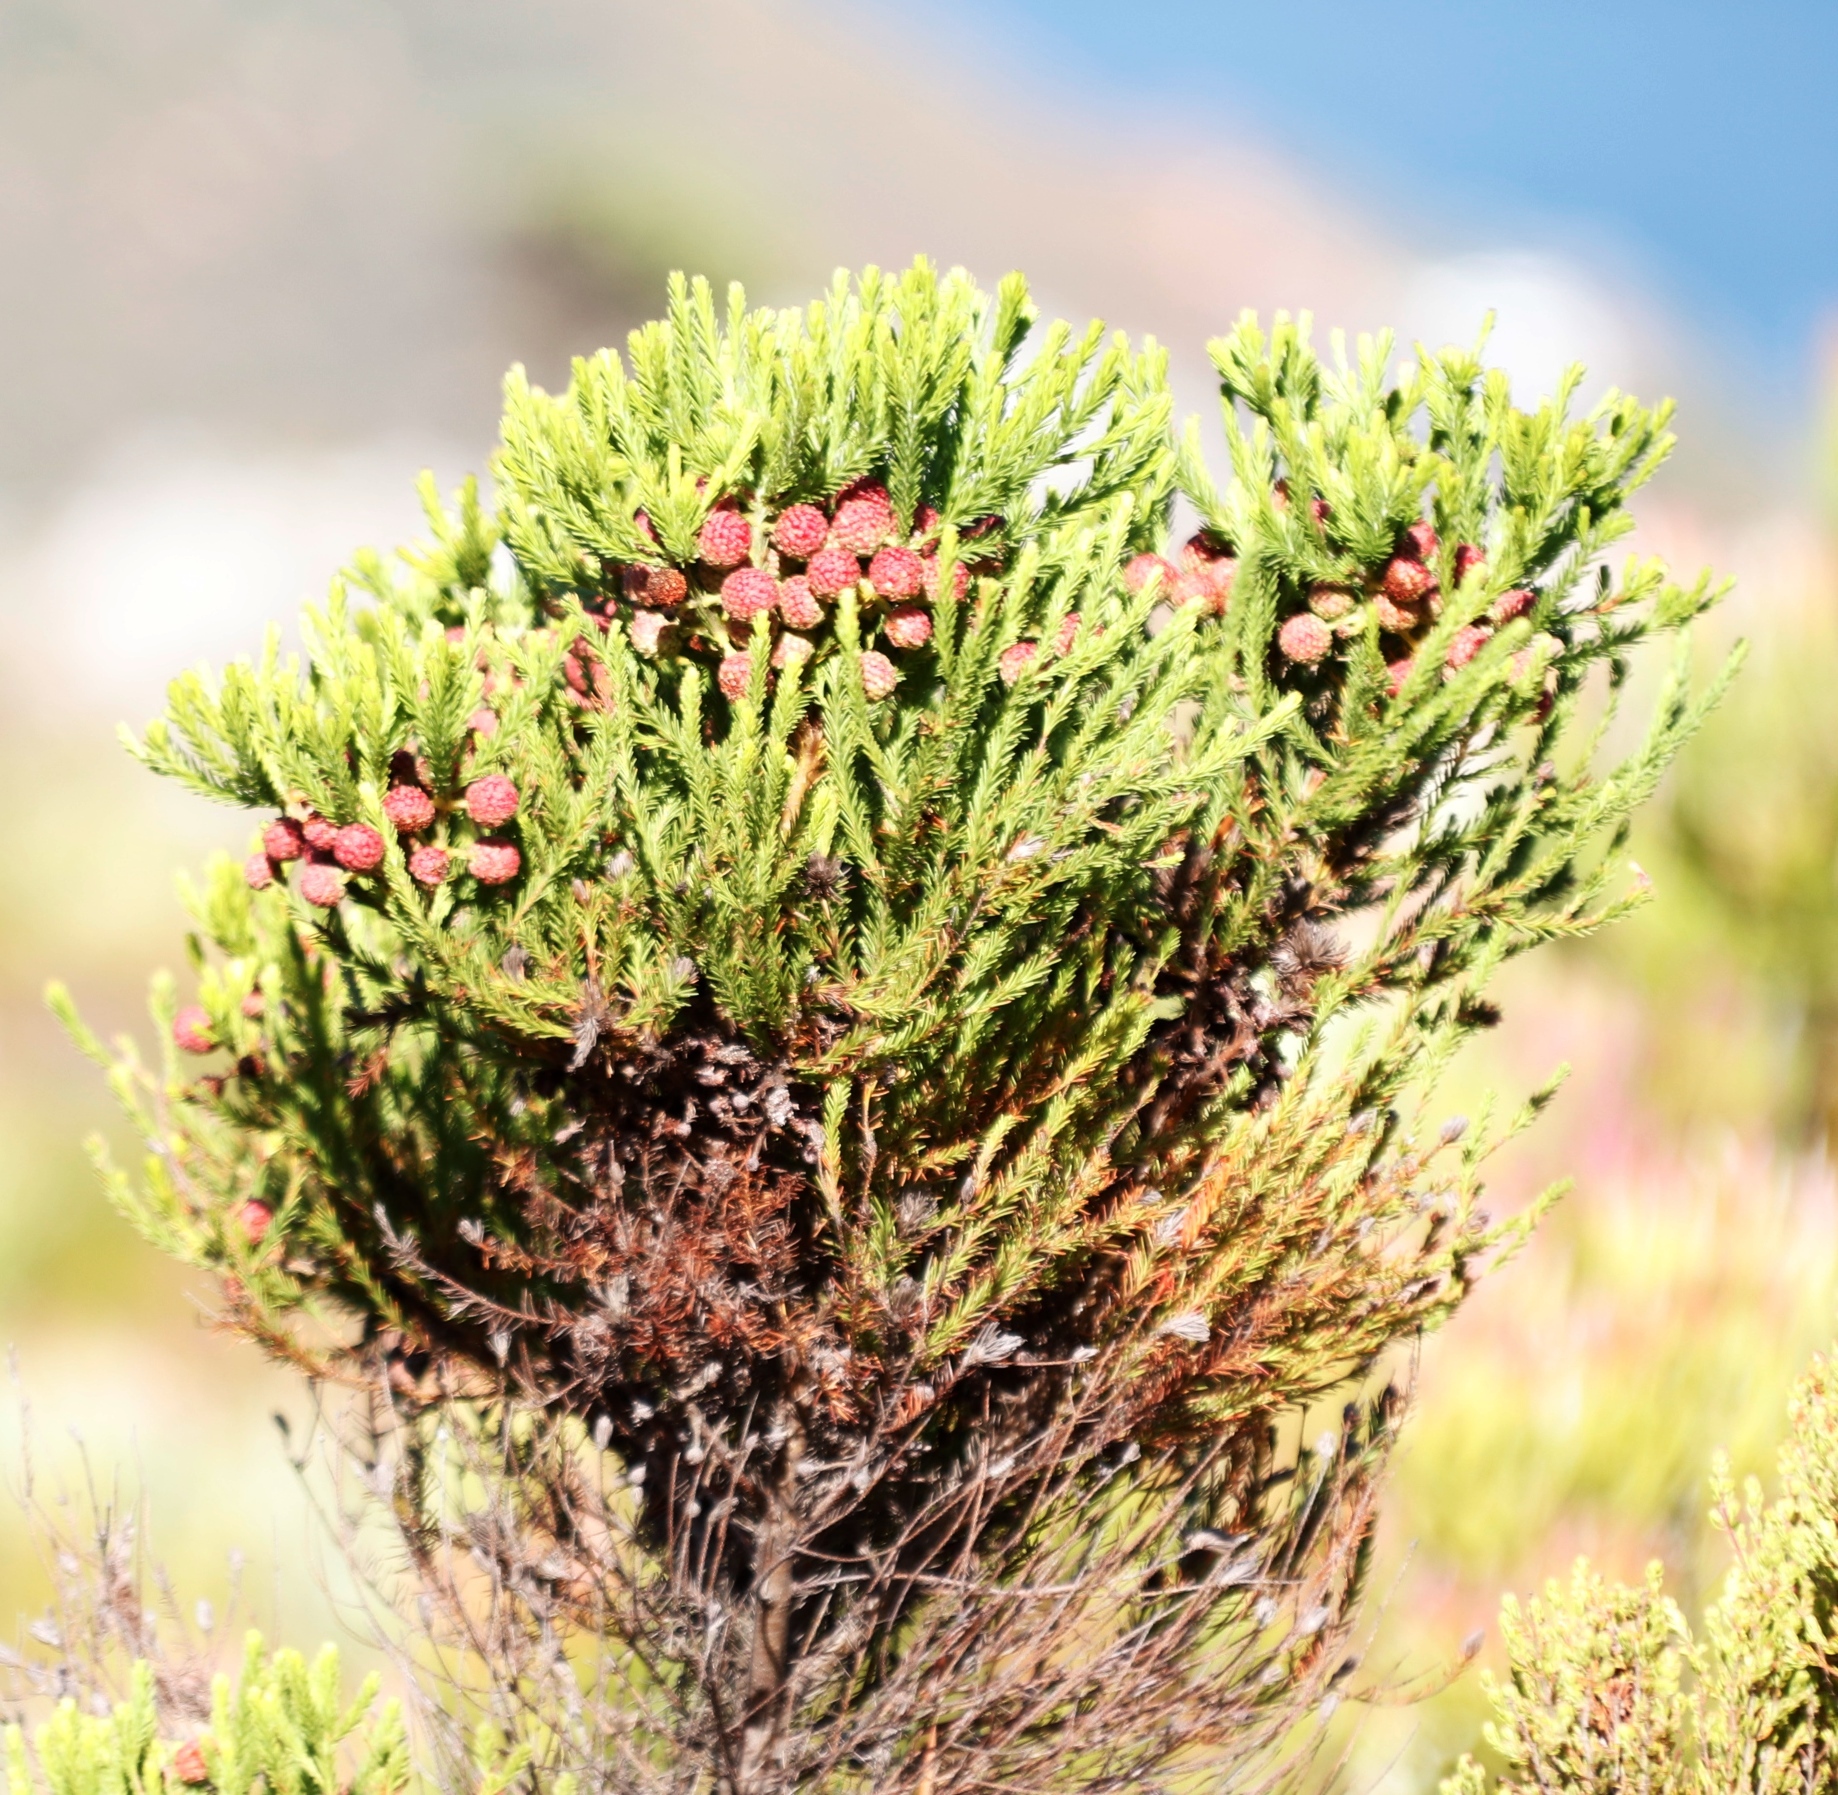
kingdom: Plantae
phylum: Tracheophyta
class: Magnoliopsida
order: Bruniales
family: Bruniaceae
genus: Berzelia
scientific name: Berzelia lanuginosa
